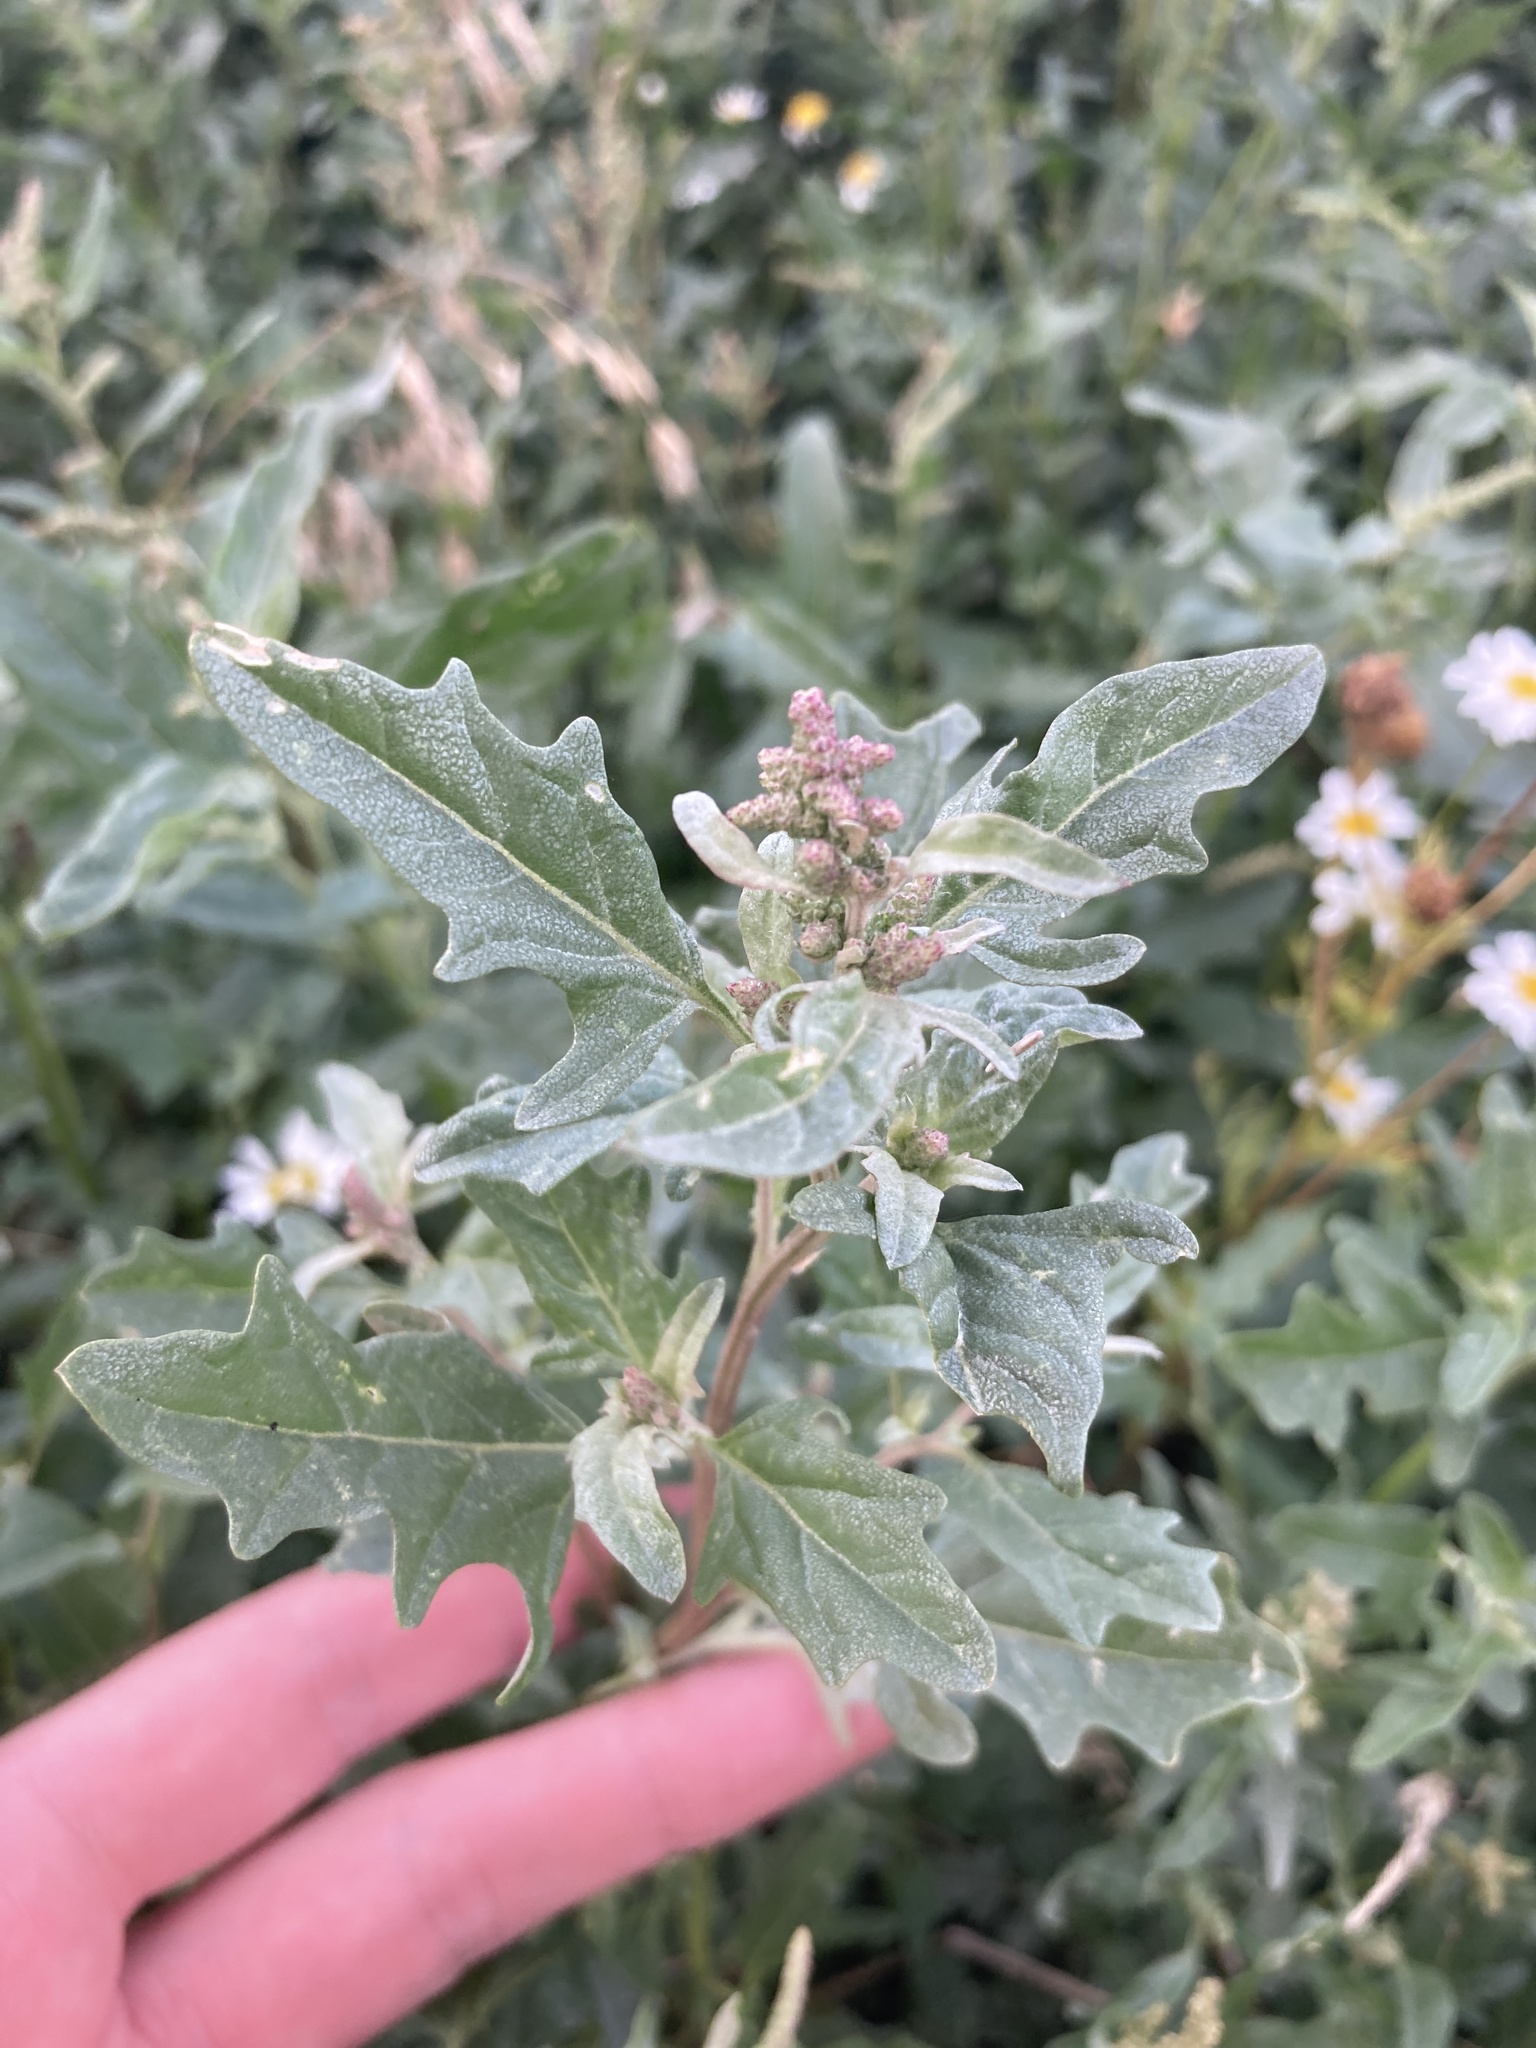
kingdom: Plantae
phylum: Tracheophyta
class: Magnoliopsida
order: Caryophyllales
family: Amaranthaceae
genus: Atriplex
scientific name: Atriplex tatarica
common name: Tatarian orache
